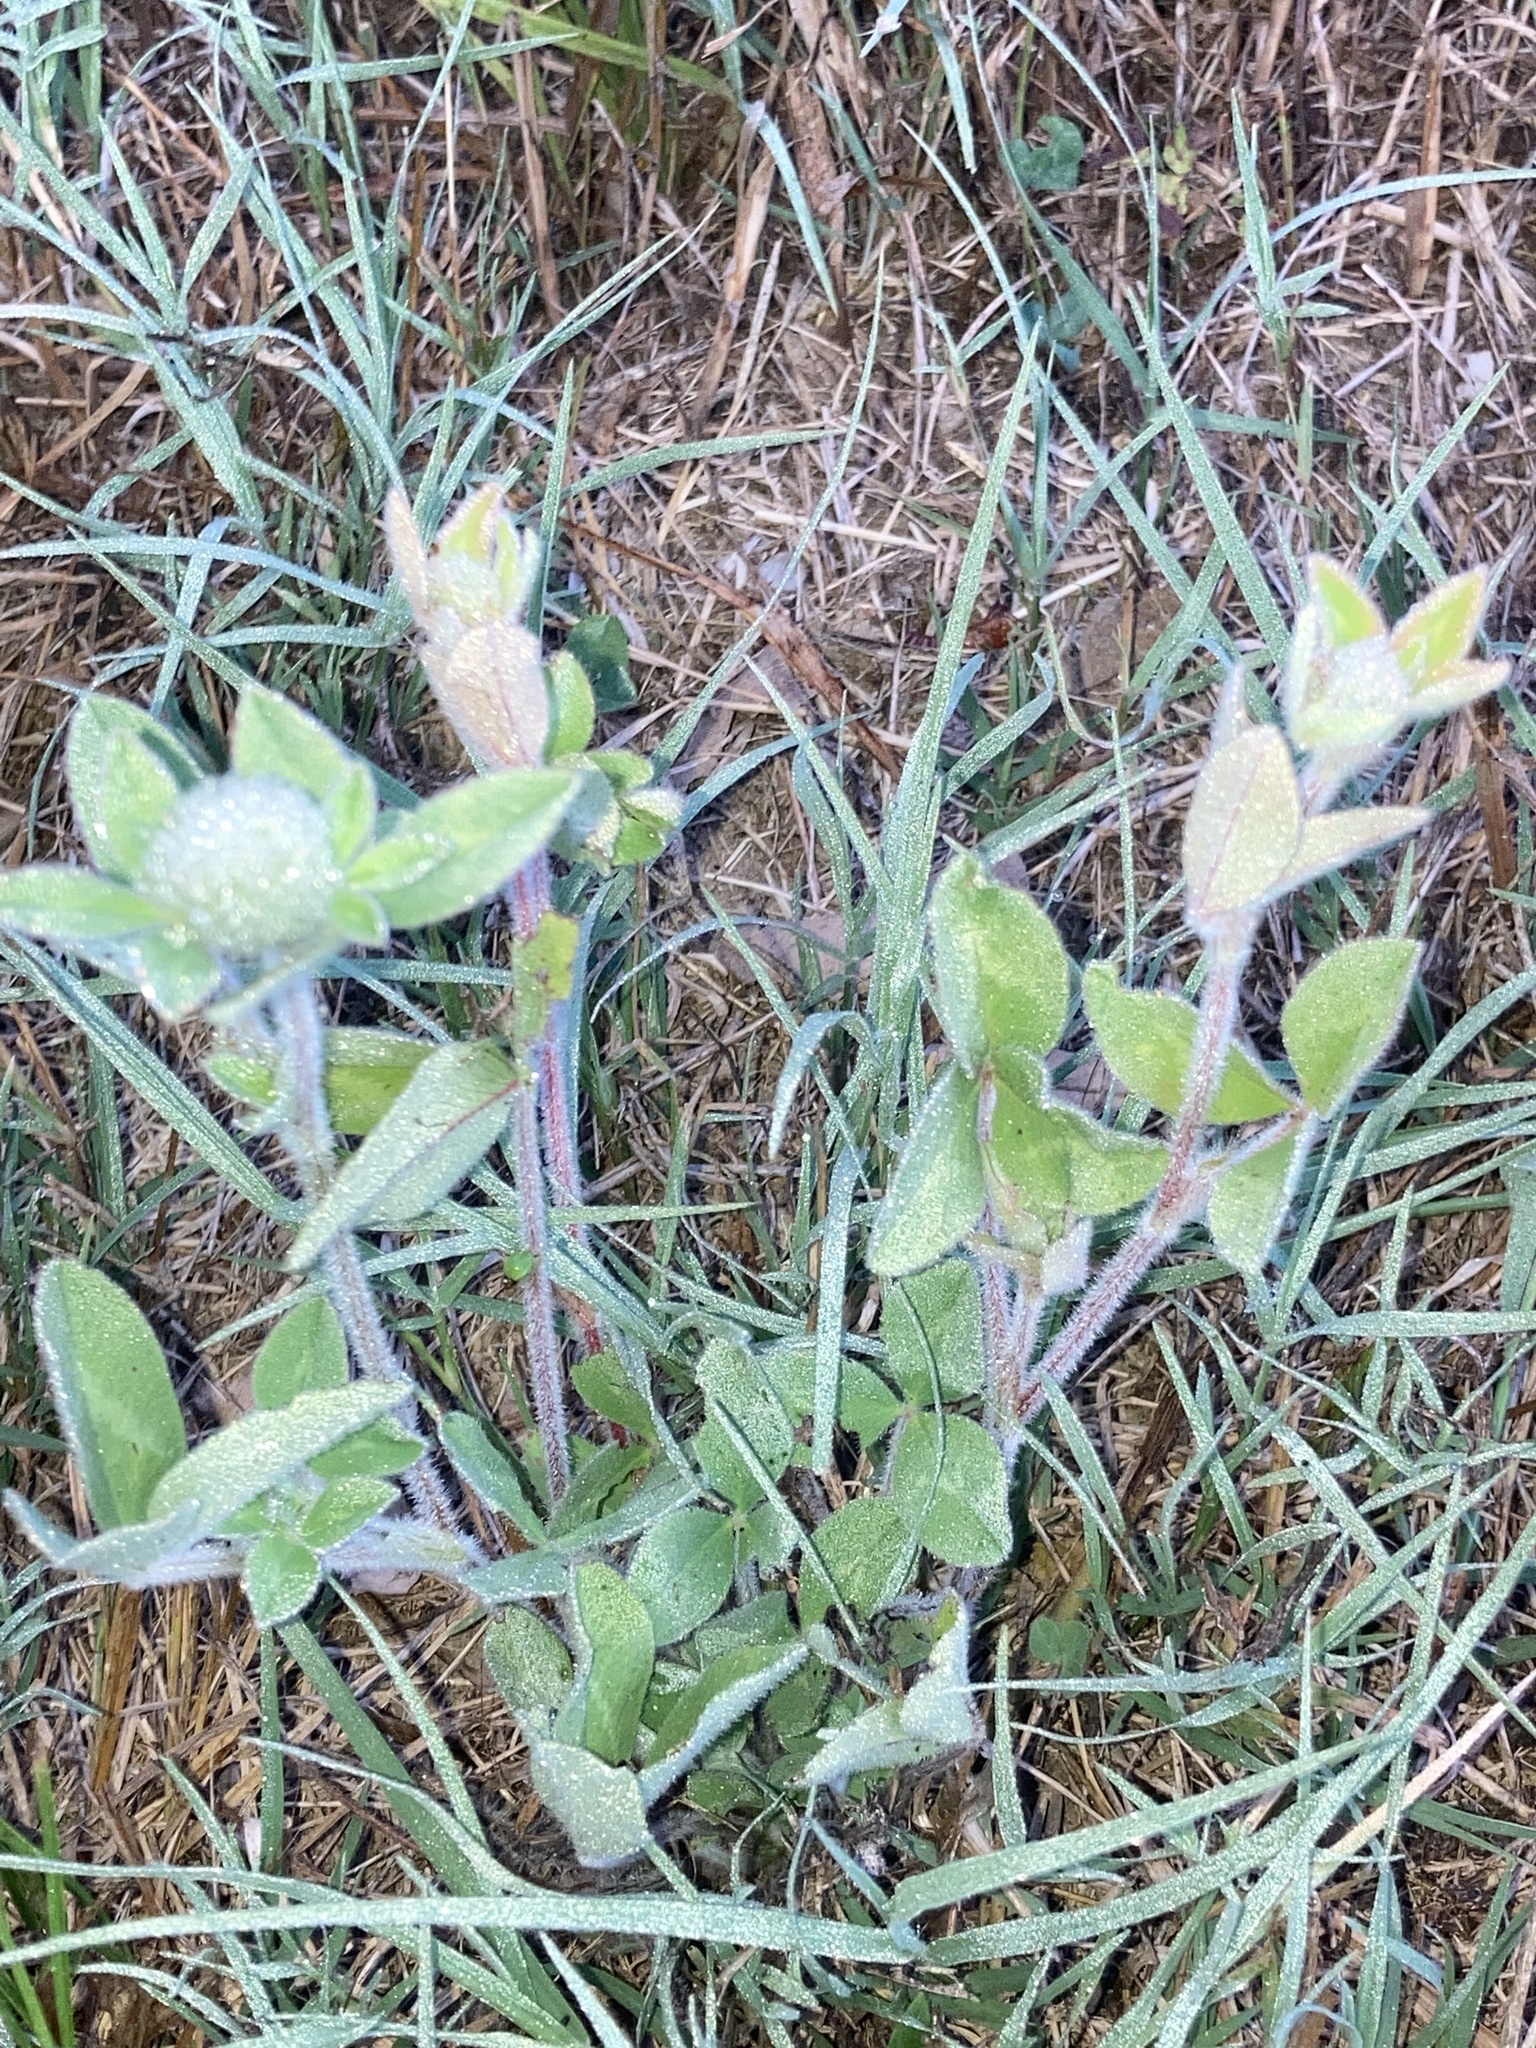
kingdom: Plantae
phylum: Tracheophyta
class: Magnoliopsida
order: Fabales
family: Fabaceae
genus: Trifolium
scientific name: Trifolium pratense
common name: Red clover
